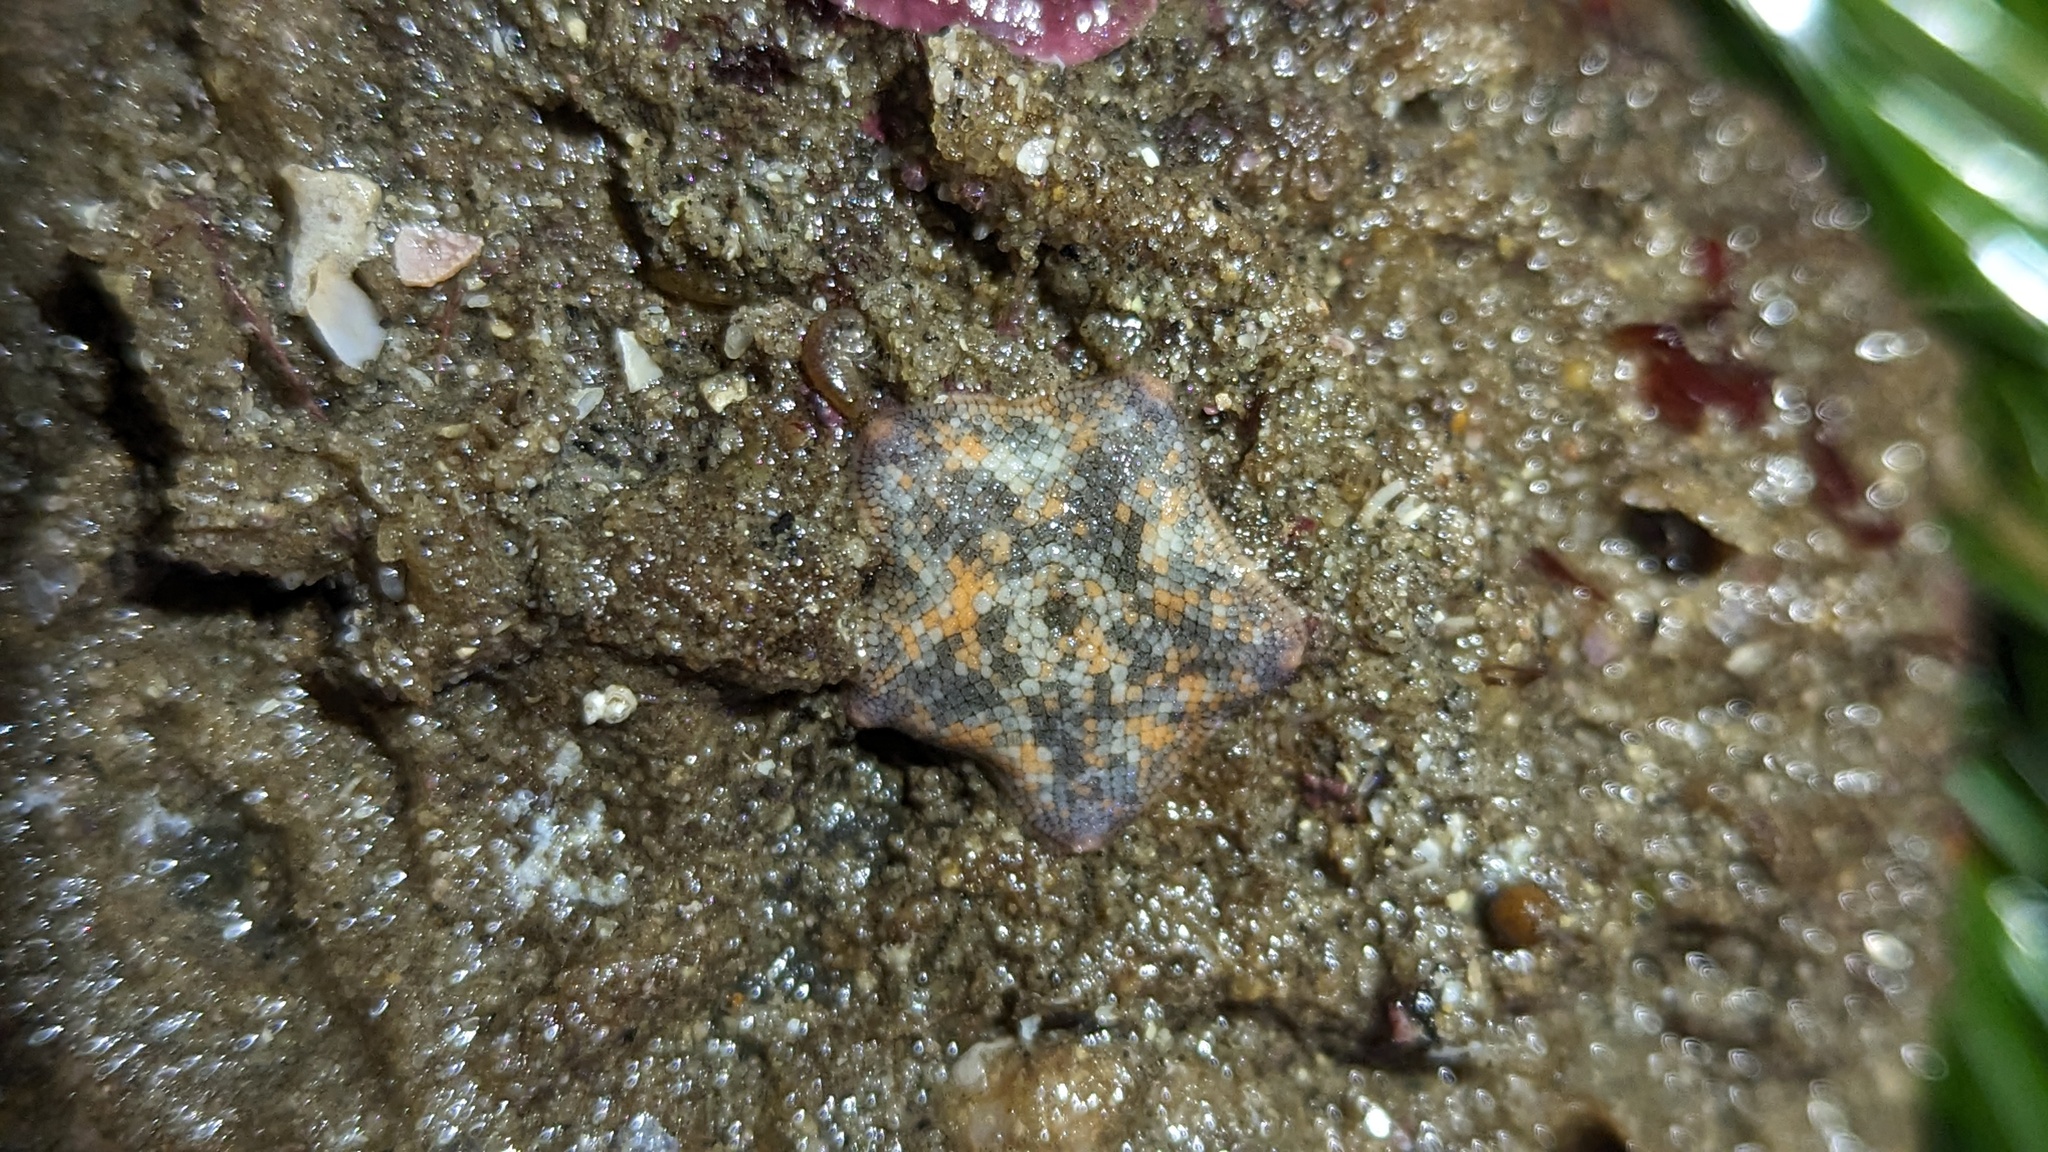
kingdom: Animalia
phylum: Echinodermata
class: Asteroidea
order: Valvatida
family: Asterinidae
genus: Patiria
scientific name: Patiria miniata
